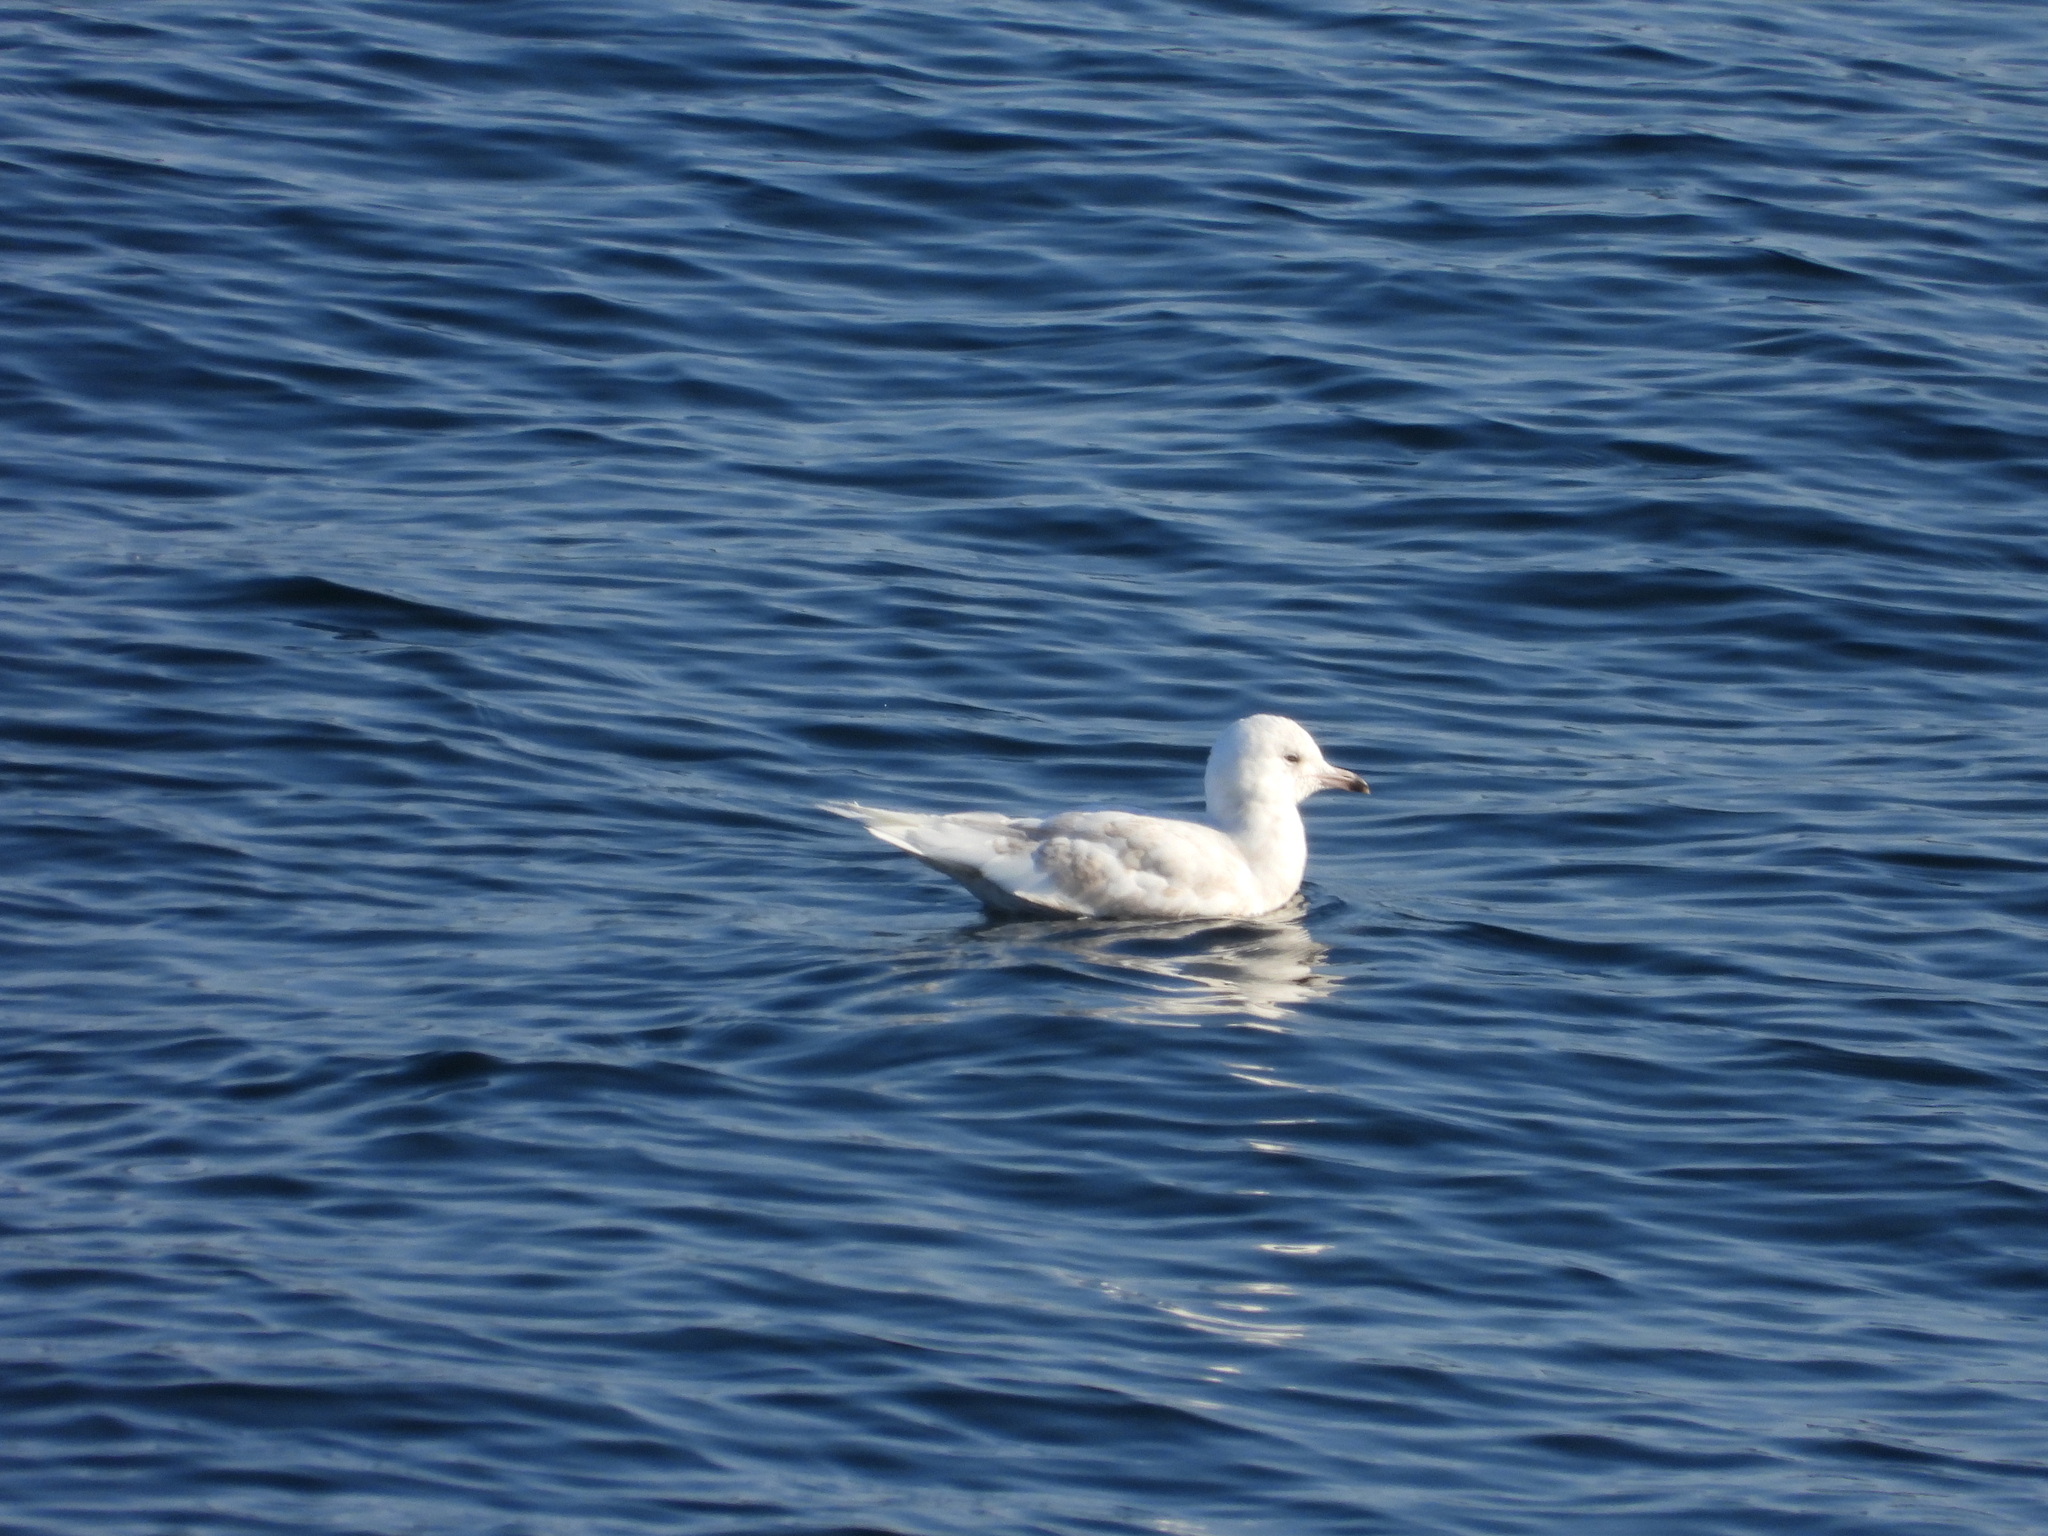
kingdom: Animalia
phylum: Chordata
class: Aves
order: Charadriiformes
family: Laridae
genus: Larus
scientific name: Larus glaucoides
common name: Iceland gull
